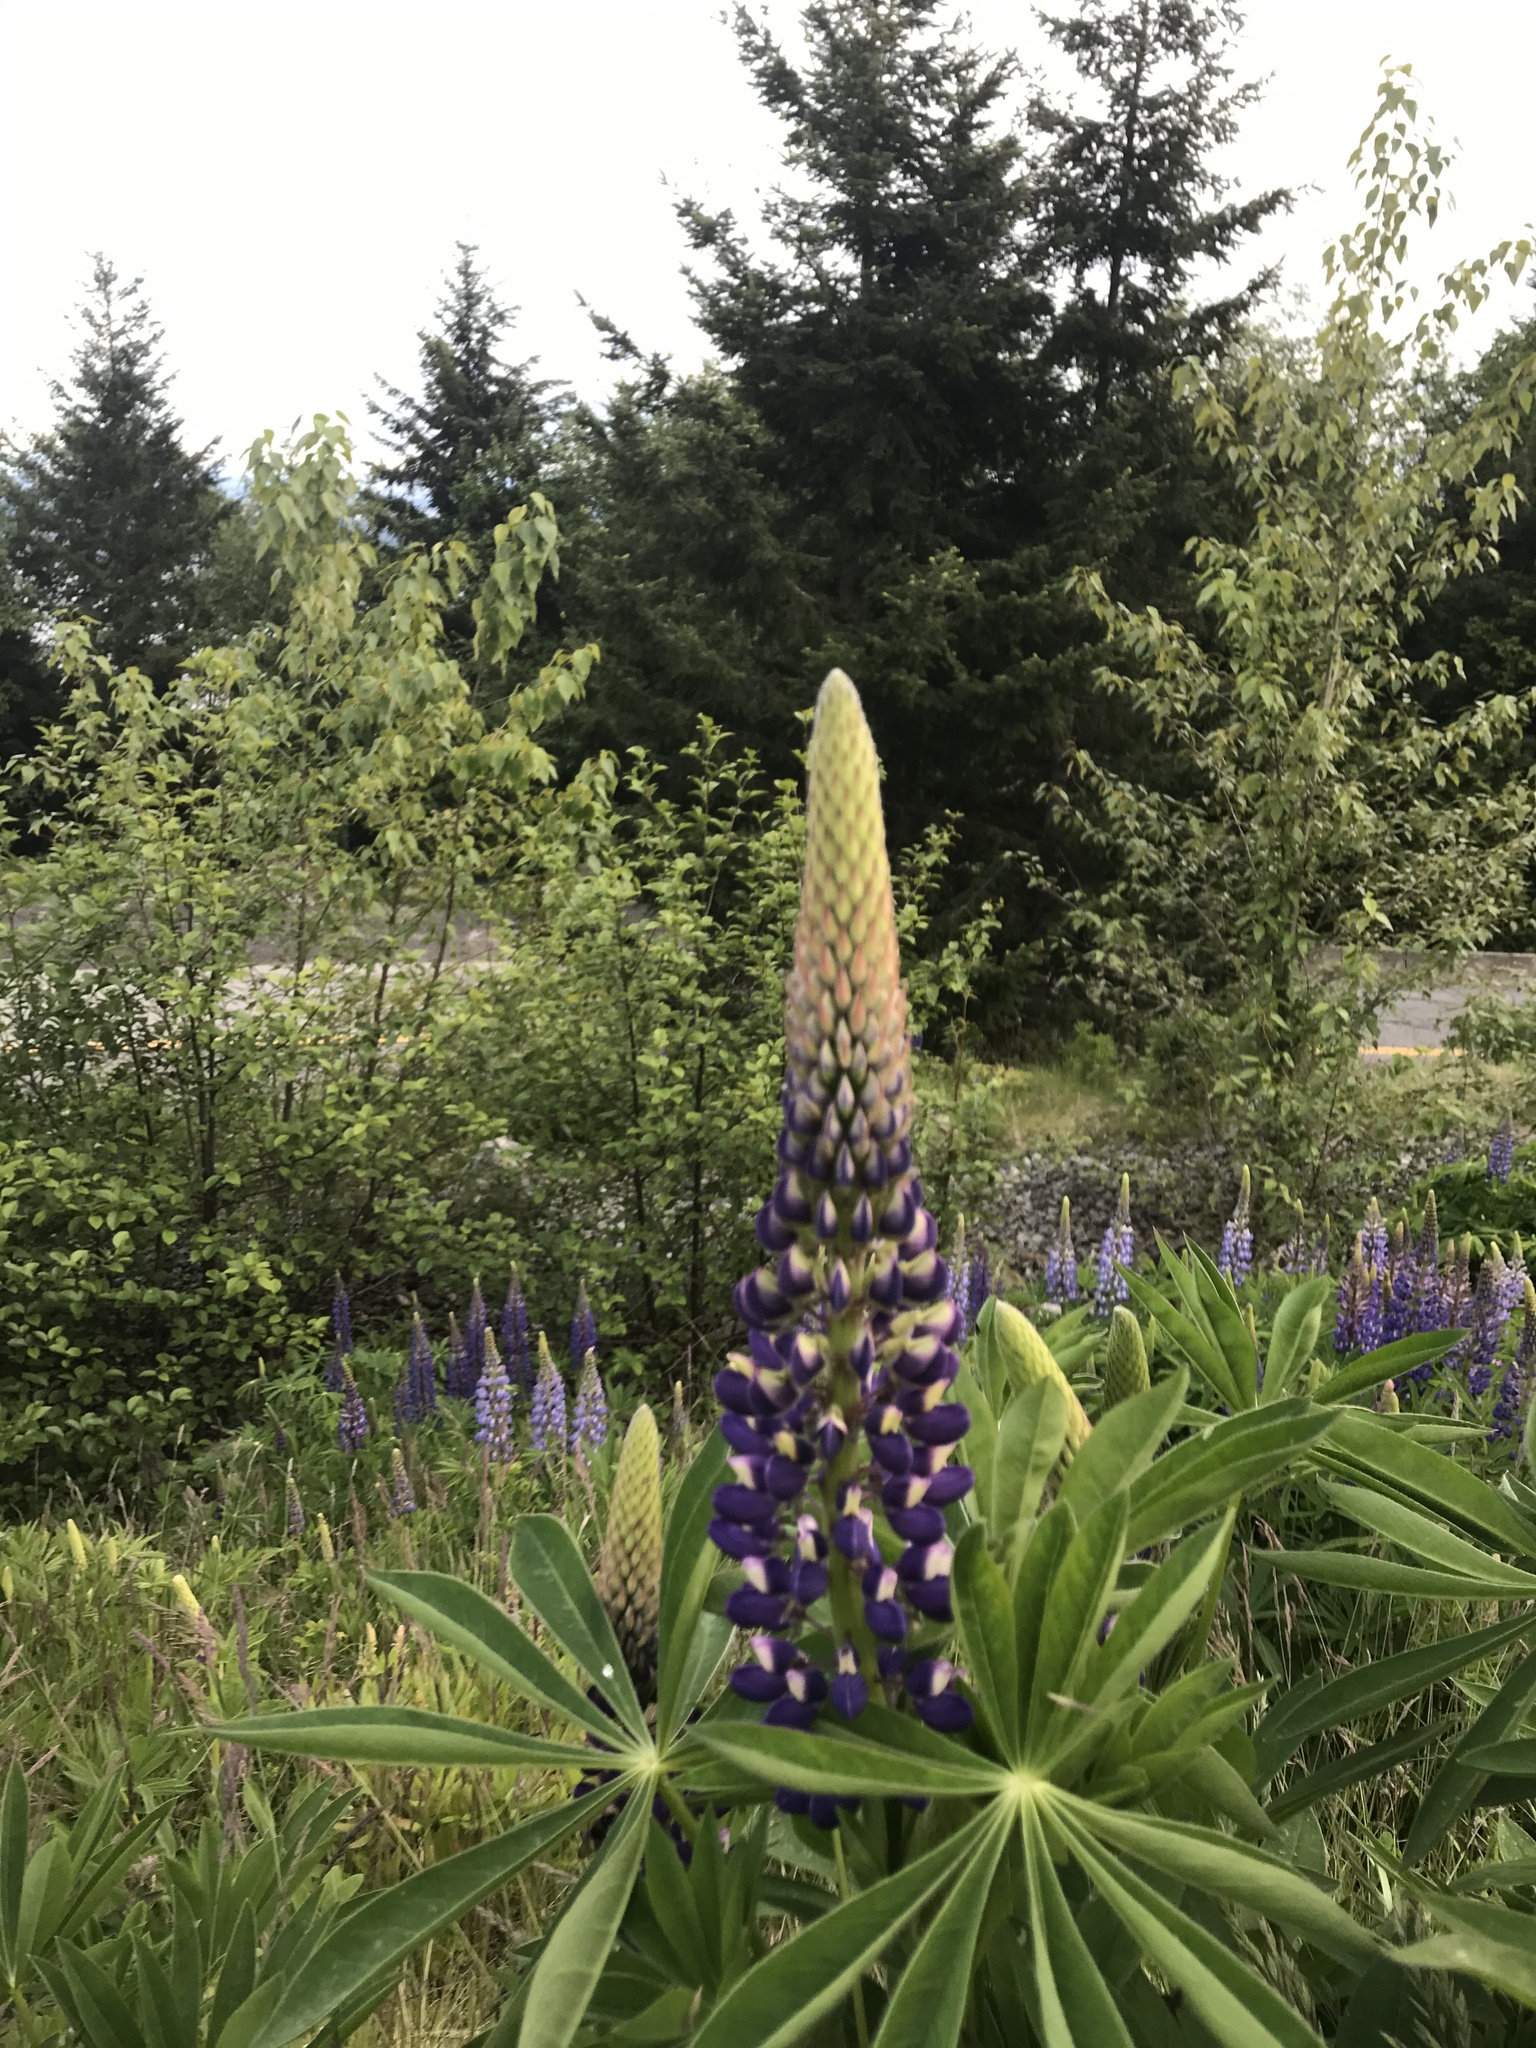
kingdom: Plantae
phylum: Tracheophyta
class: Magnoliopsida
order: Fabales
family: Fabaceae
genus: Lupinus
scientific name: Lupinus polyphyllus
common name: Garden lupin
